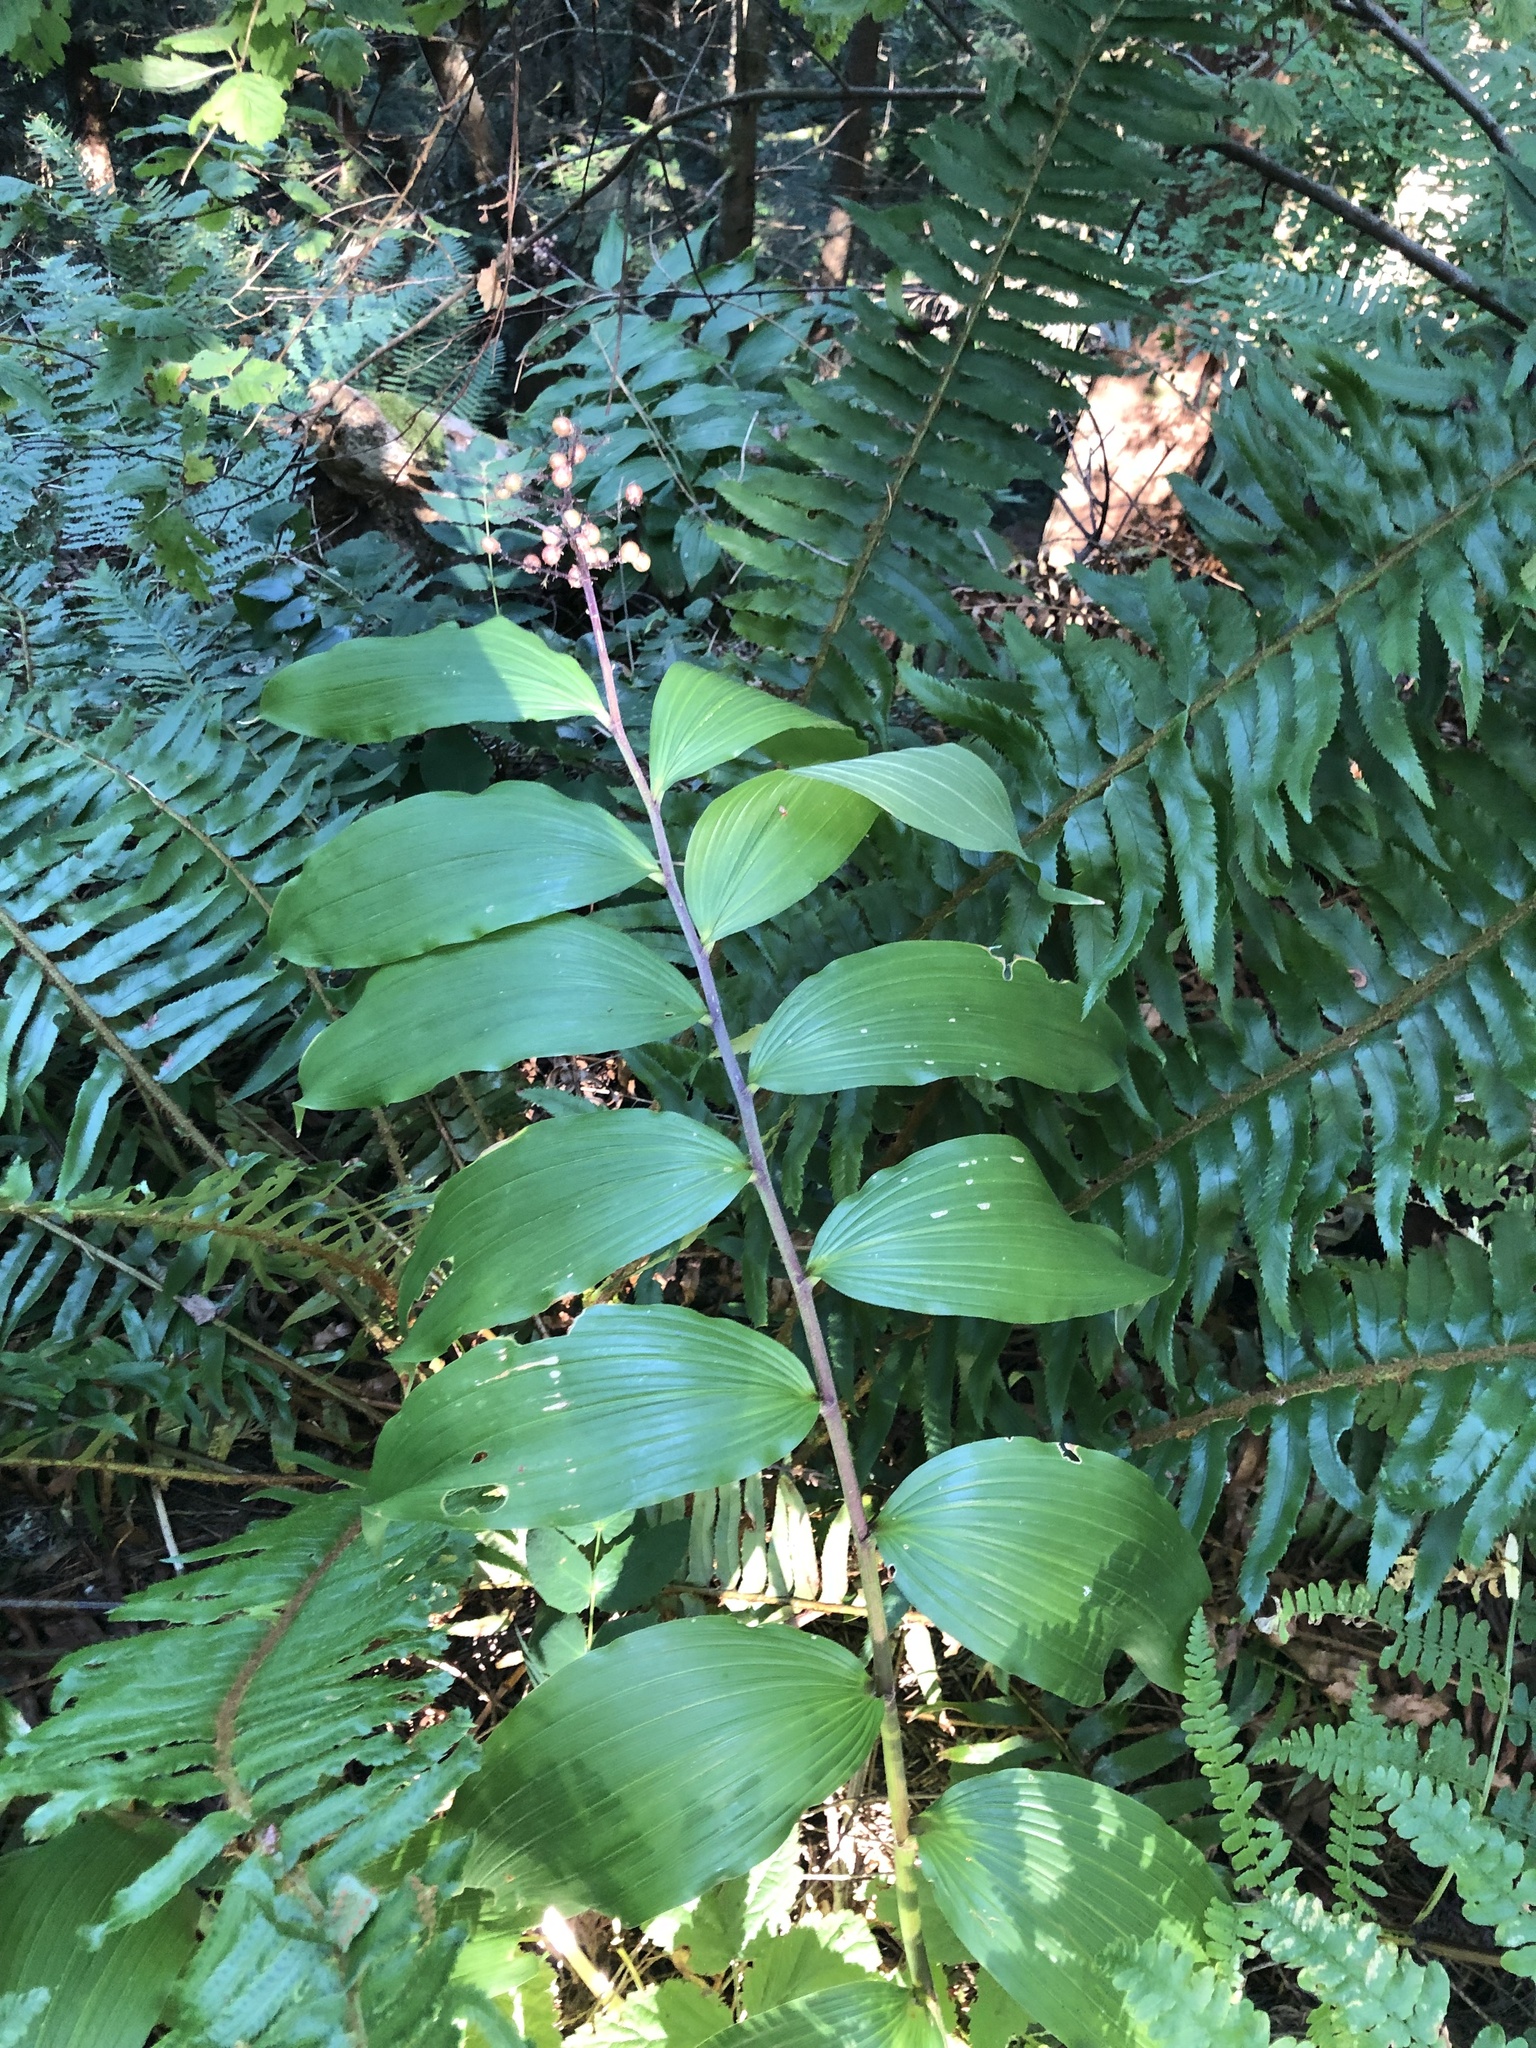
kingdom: Plantae
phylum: Tracheophyta
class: Liliopsida
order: Asparagales
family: Asparagaceae
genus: Maianthemum
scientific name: Maianthemum racemosum
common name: False spikenard
